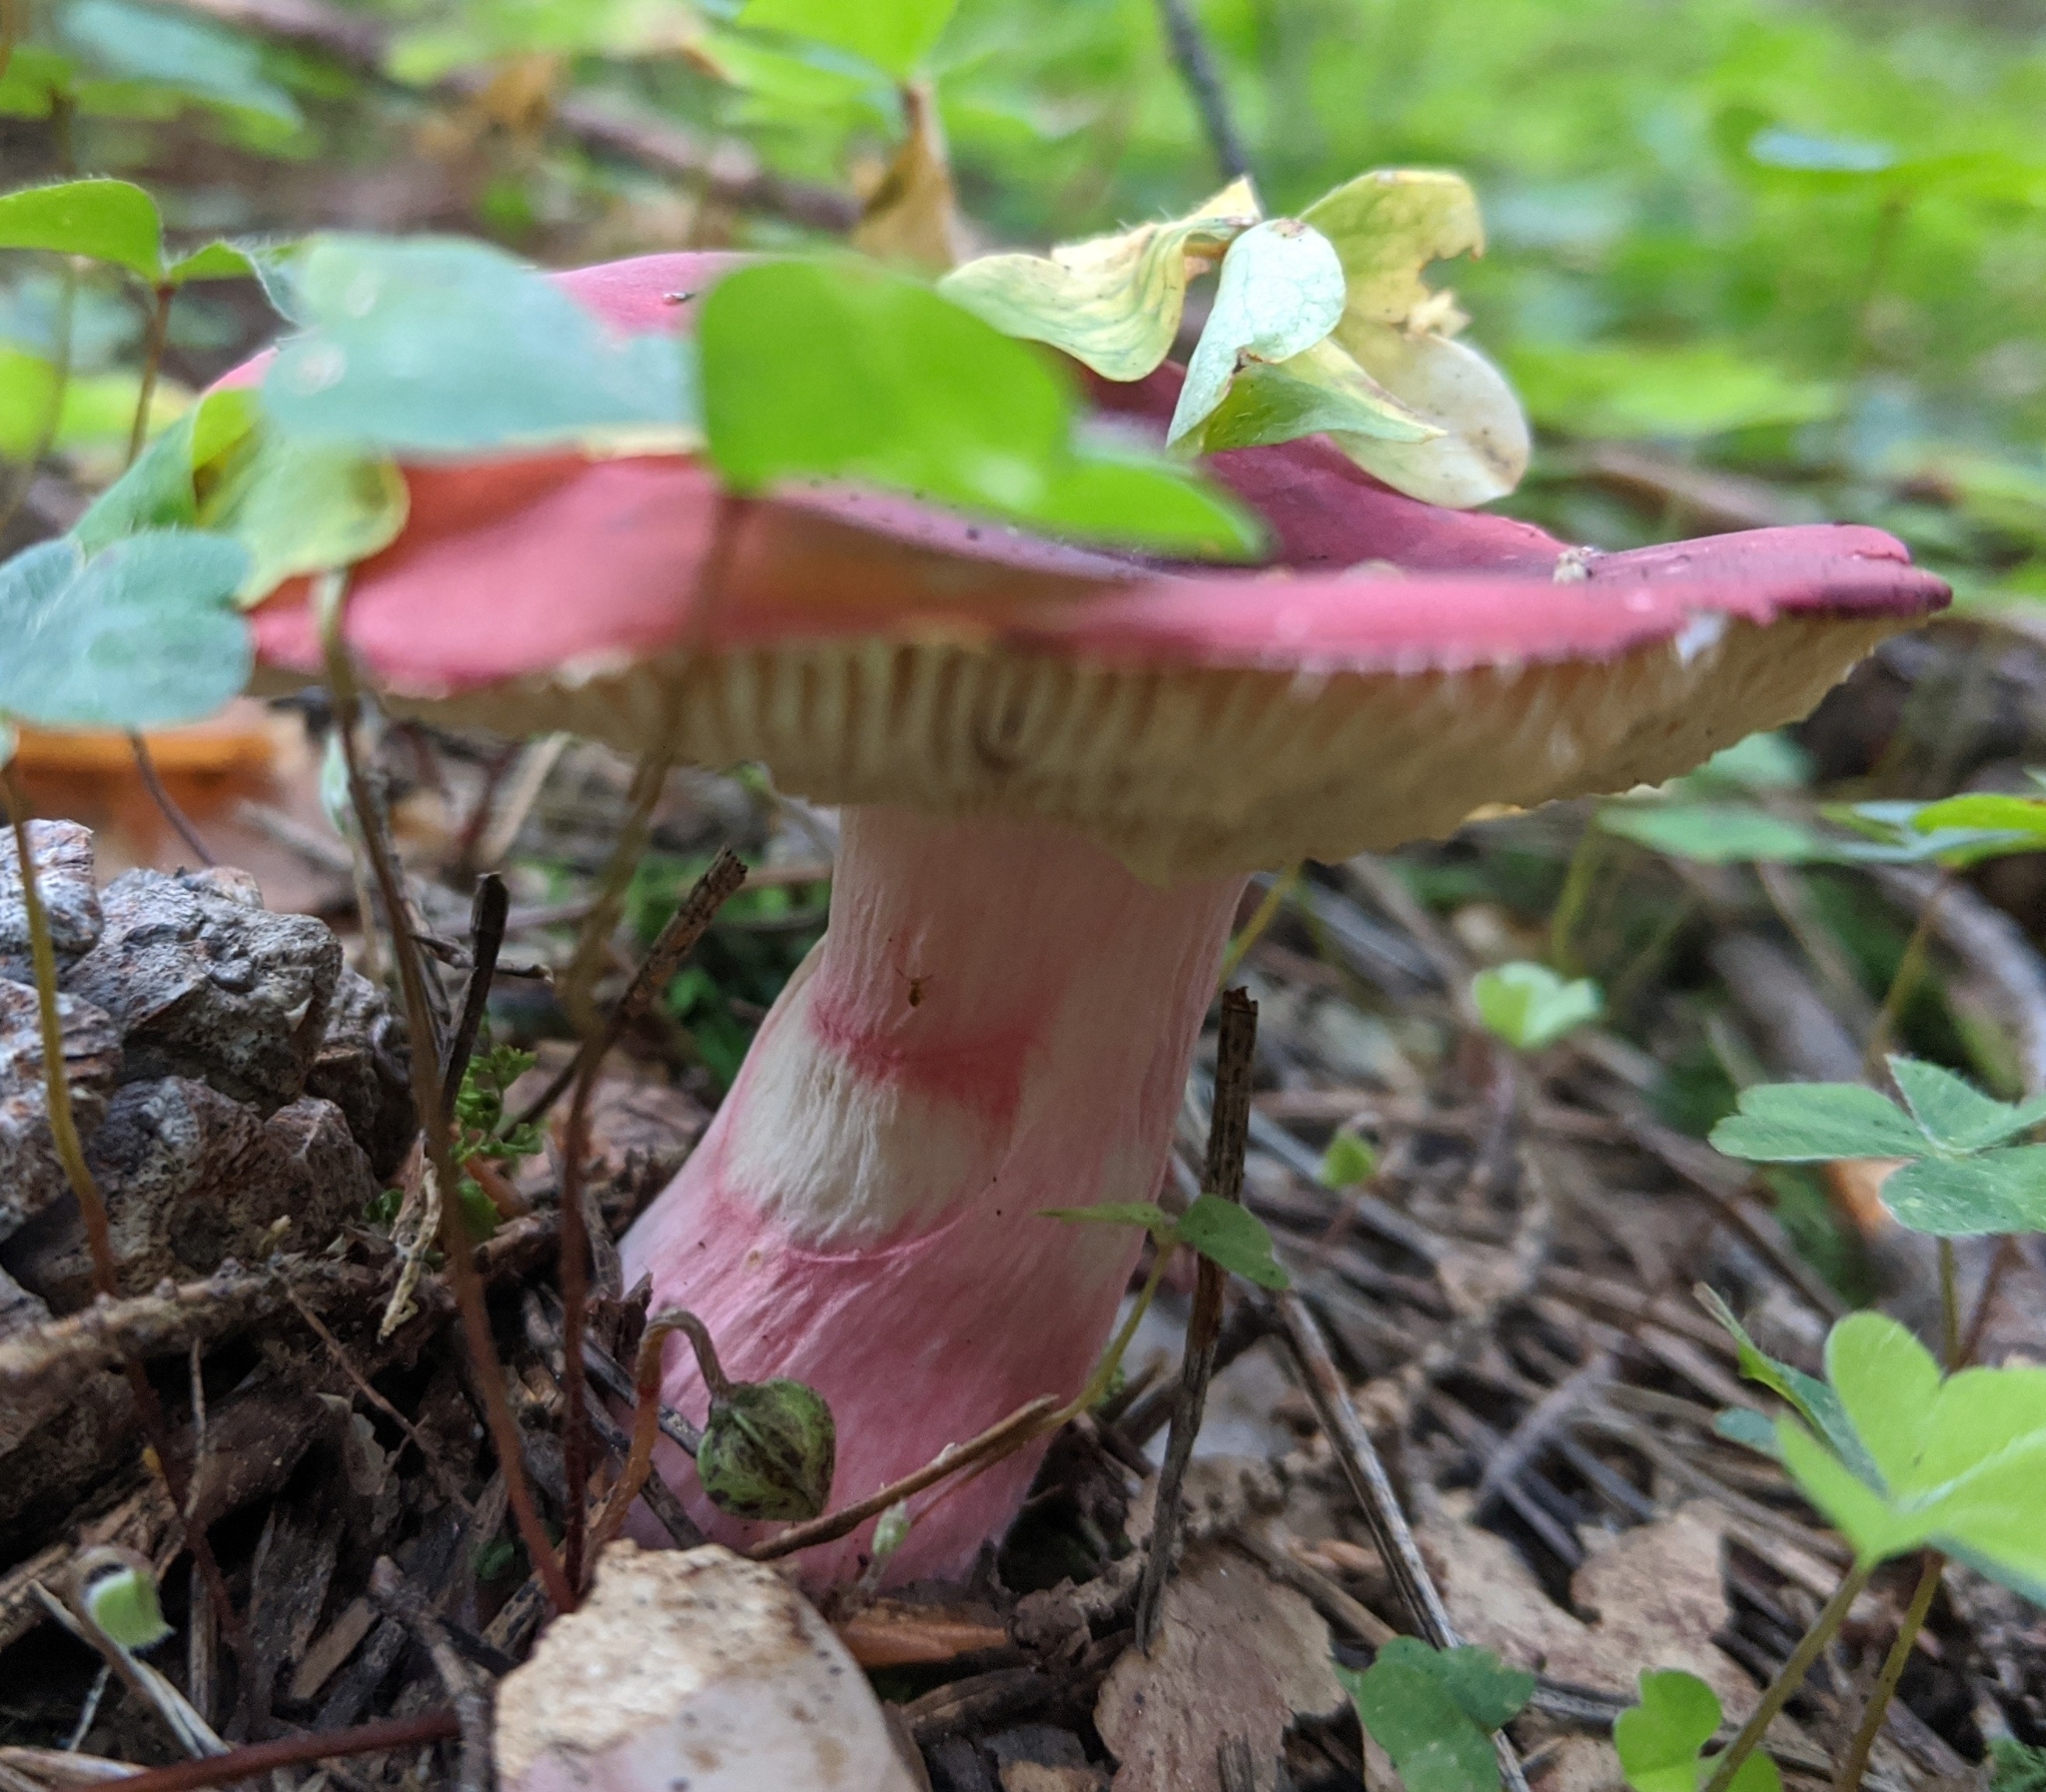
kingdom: Fungi
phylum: Basidiomycota
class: Agaricomycetes
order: Russulales
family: Russulaceae
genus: Russula
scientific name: Russula sanguinea
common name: Bloody brittlegill
